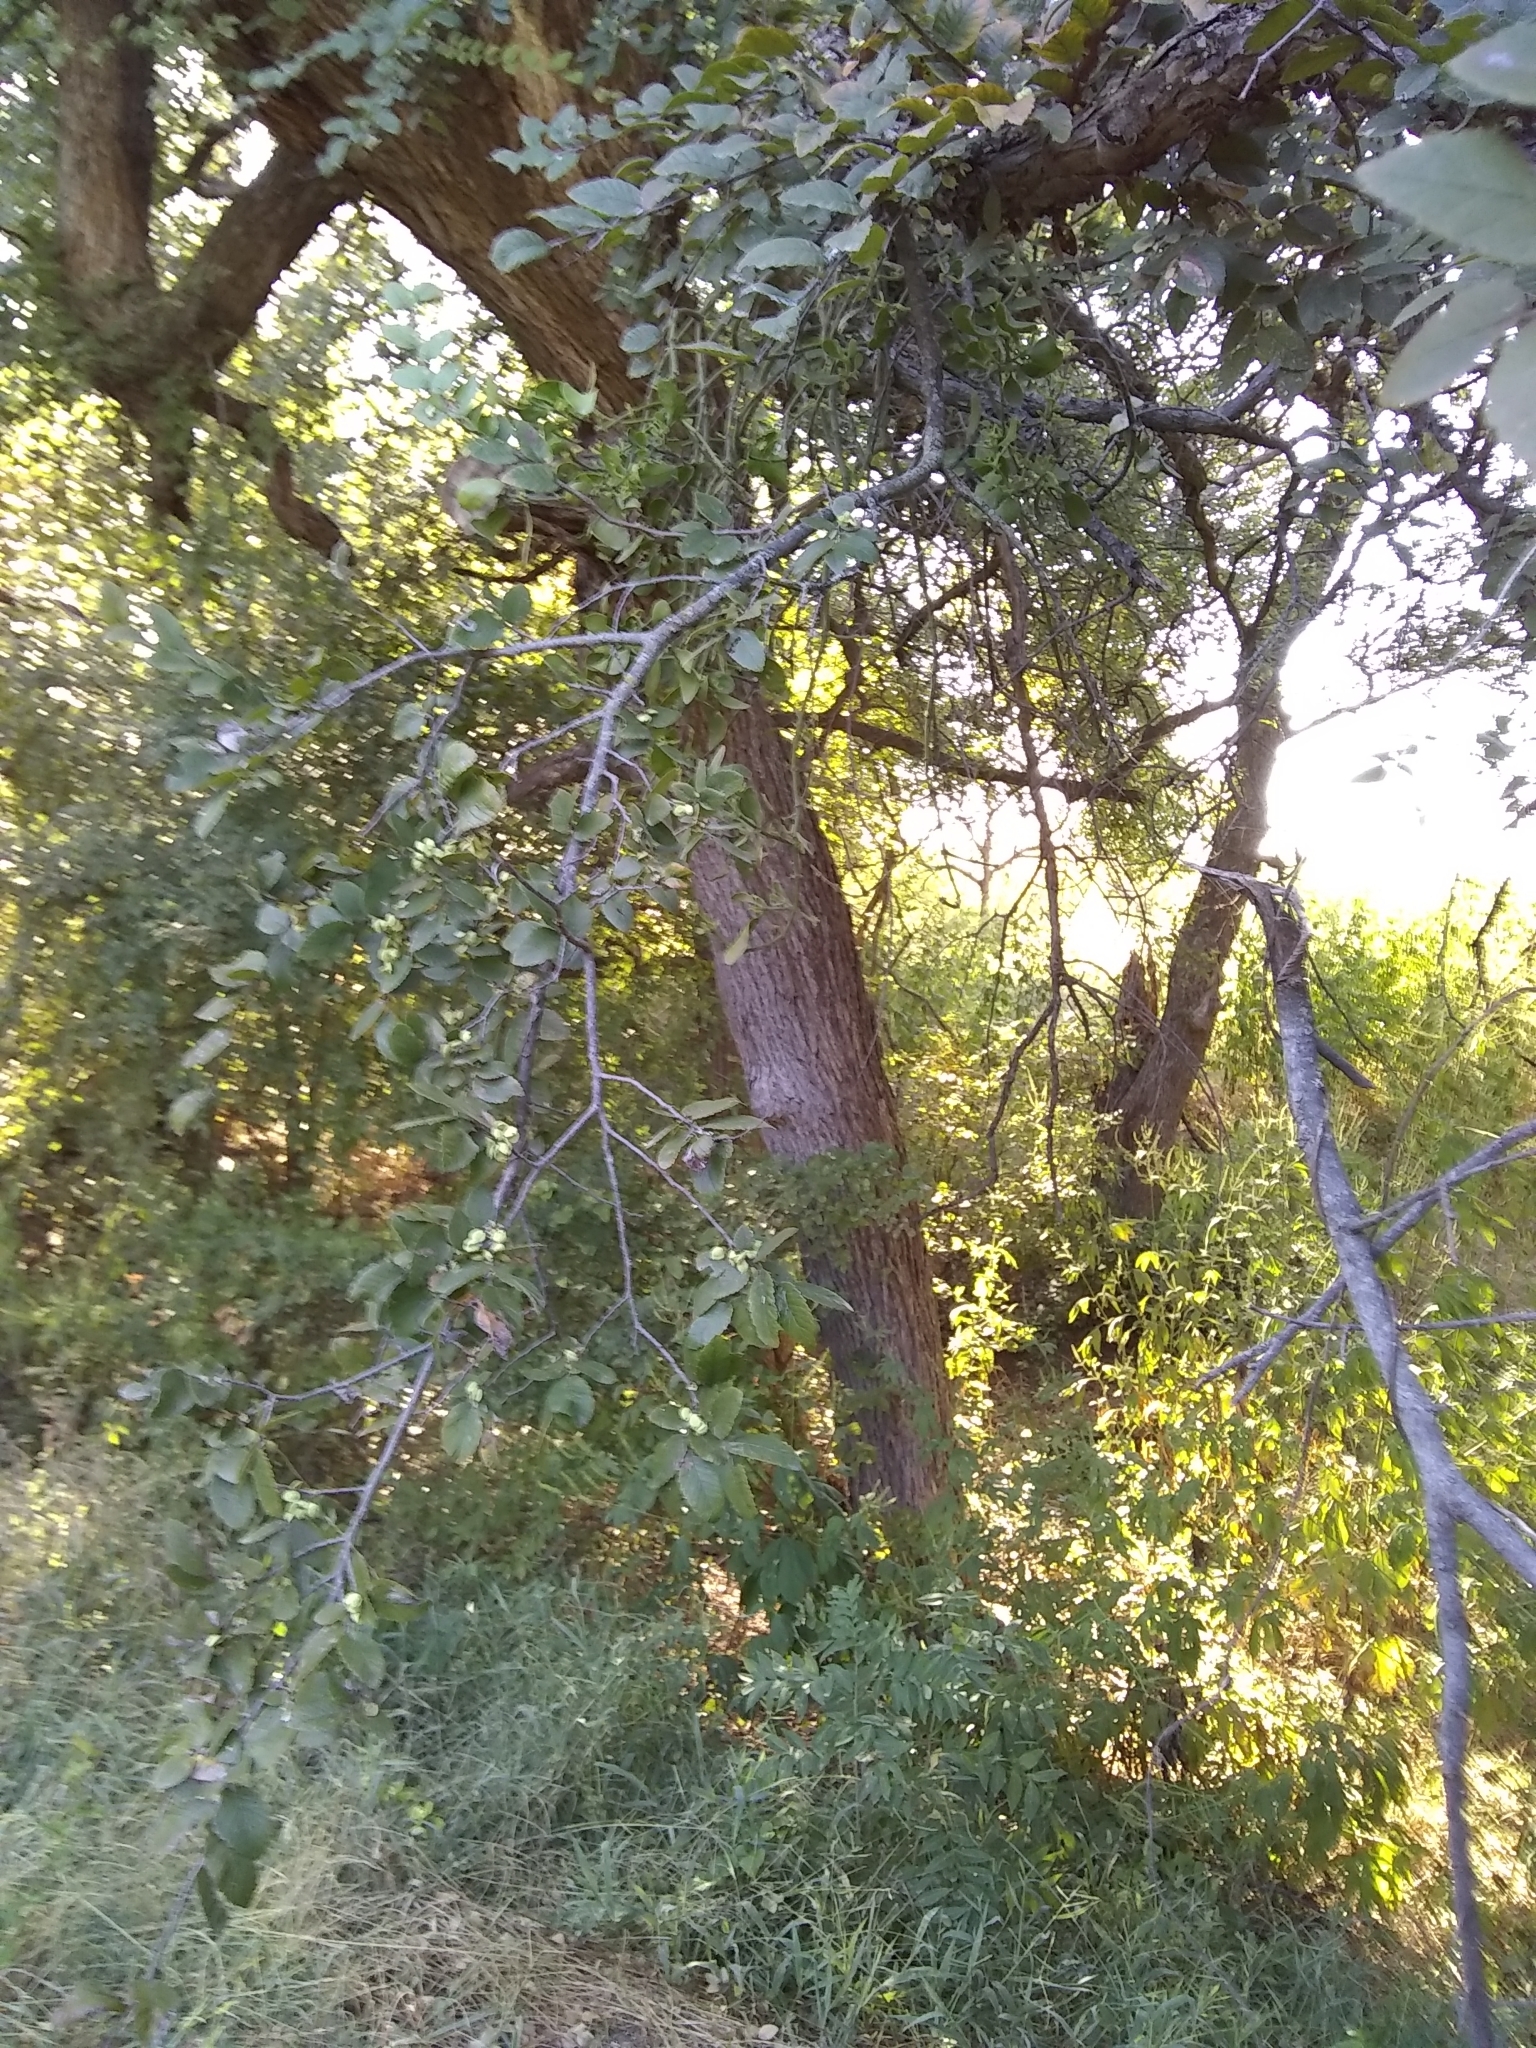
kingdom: Plantae
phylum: Tracheophyta
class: Magnoliopsida
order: Rosales
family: Ulmaceae
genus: Ulmus
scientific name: Ulmus crassifolia
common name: Basket elm
